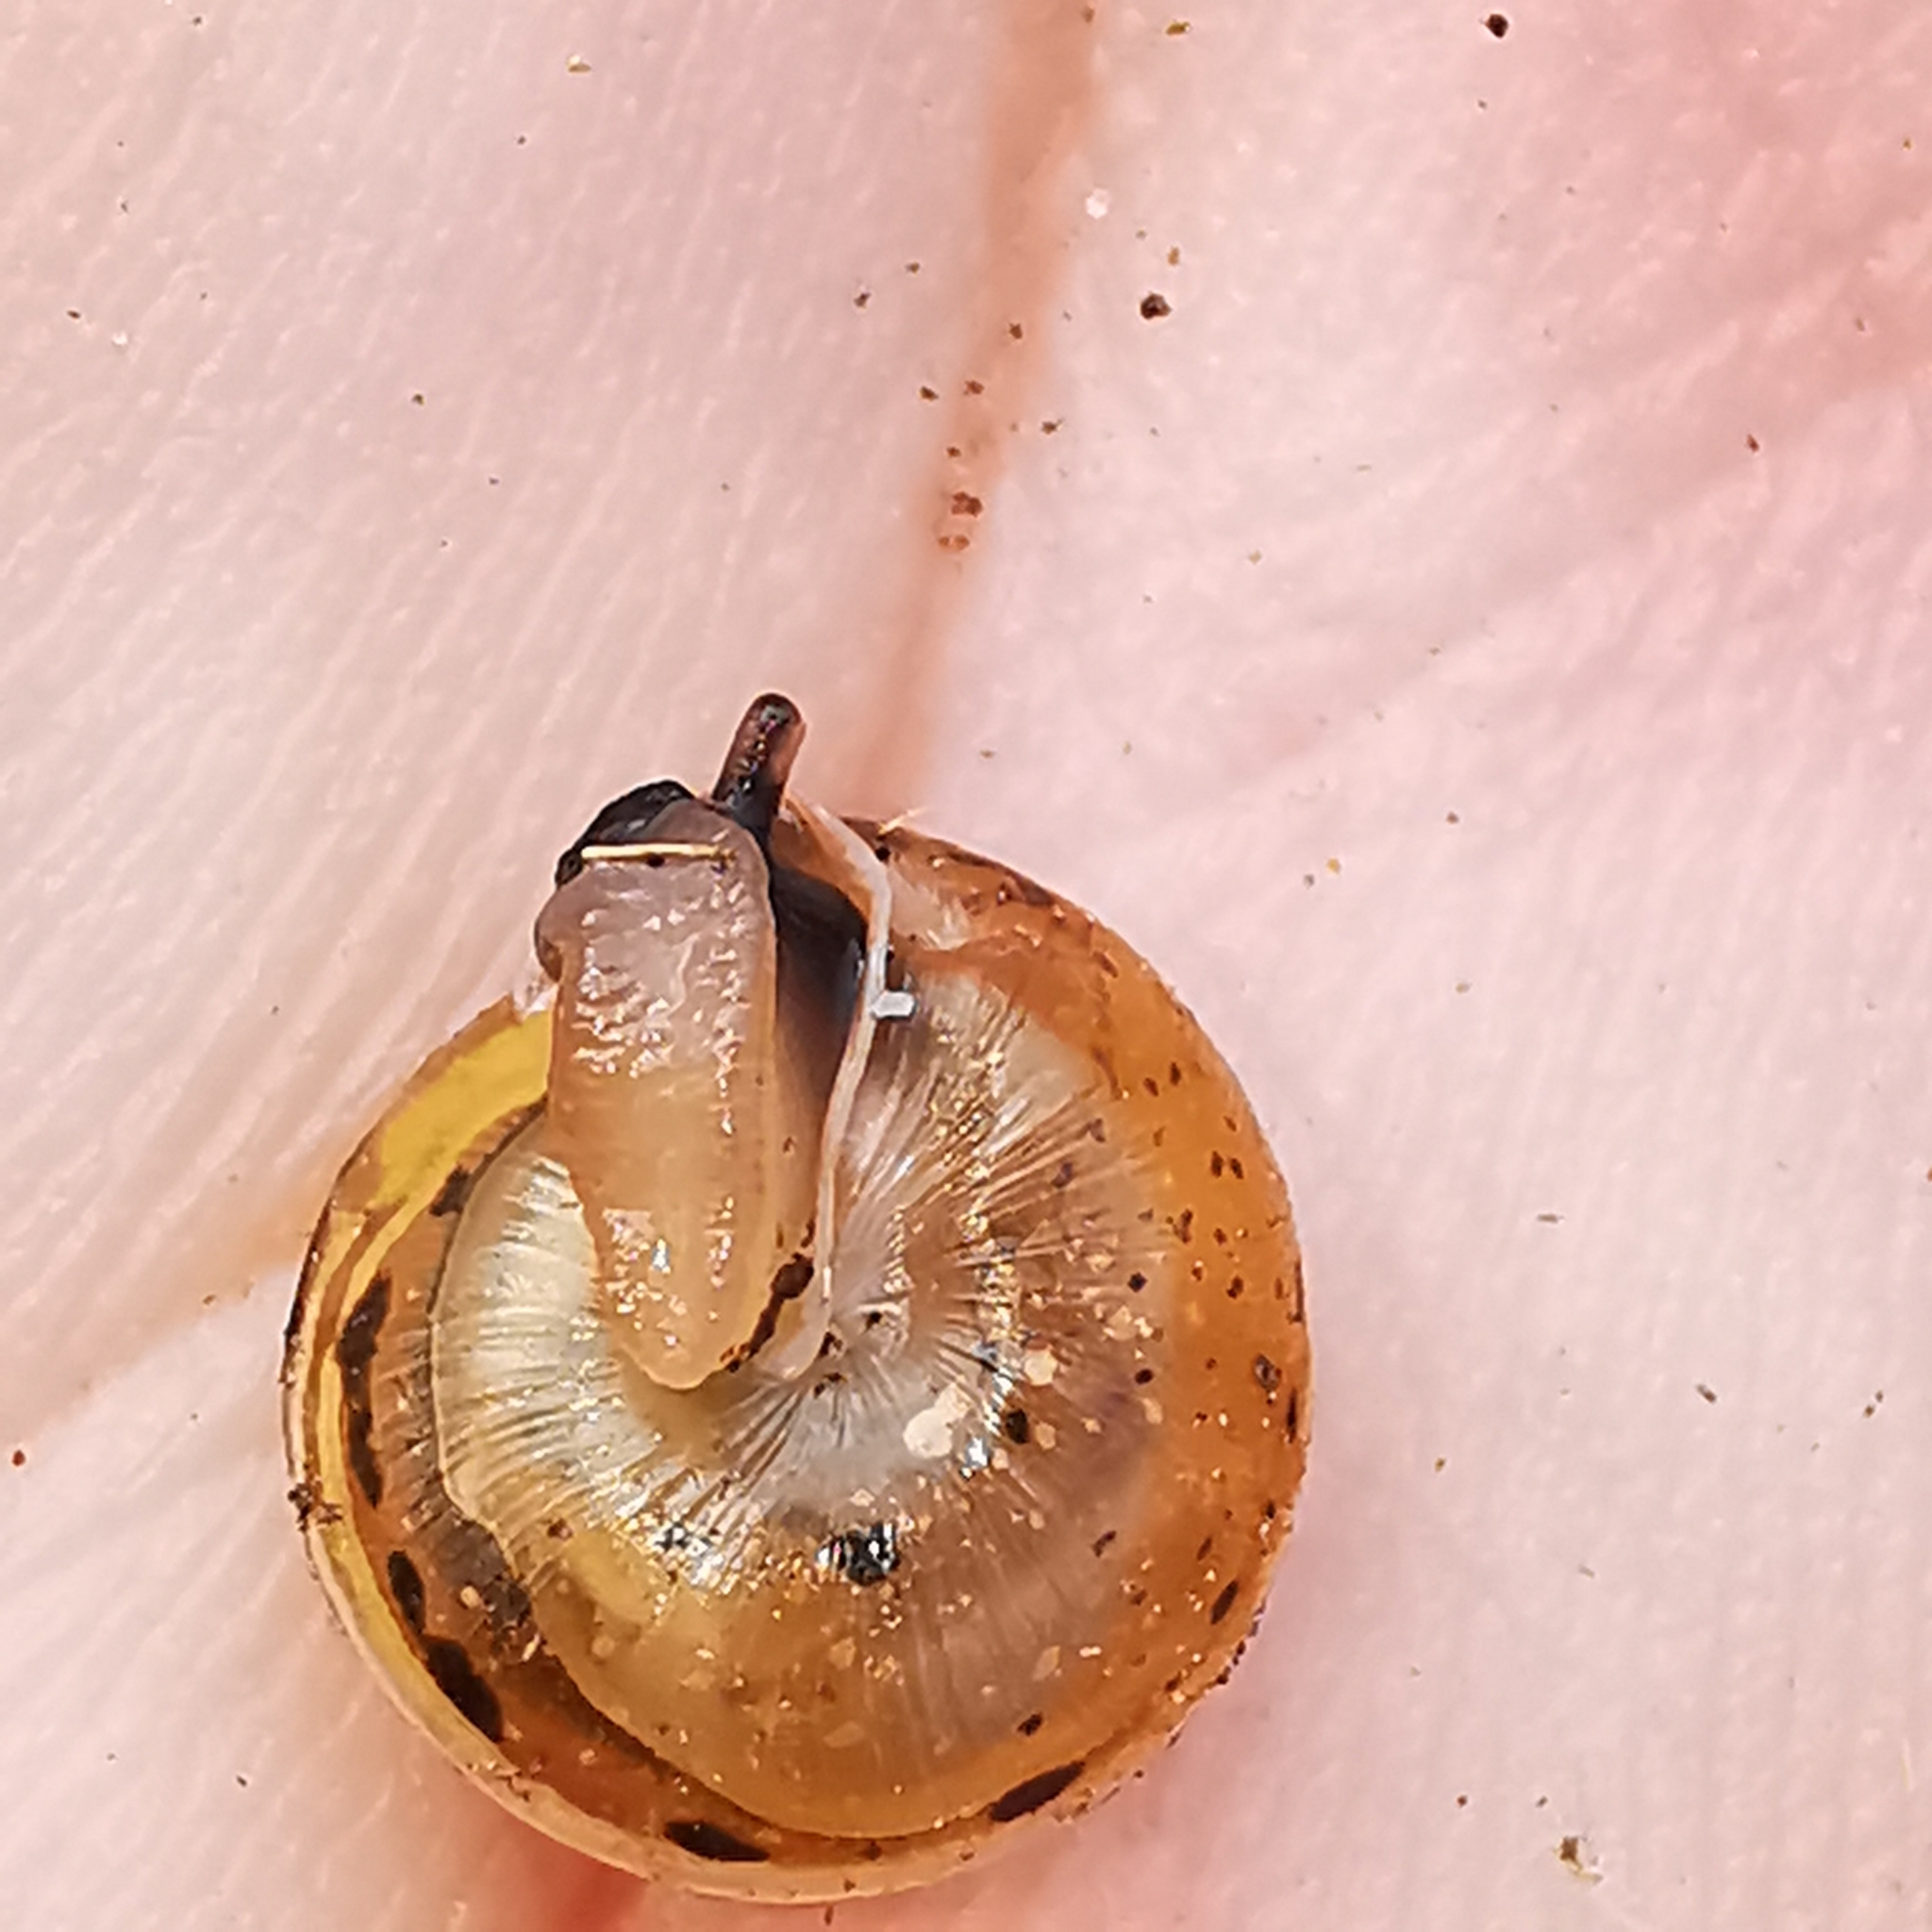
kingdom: Animalia
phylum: Mollusca
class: Gastropoda
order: Stylommatophora
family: Hygromiidae
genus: Perforatella
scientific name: Perforatella bidentata
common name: Double-tooth hairy snail
